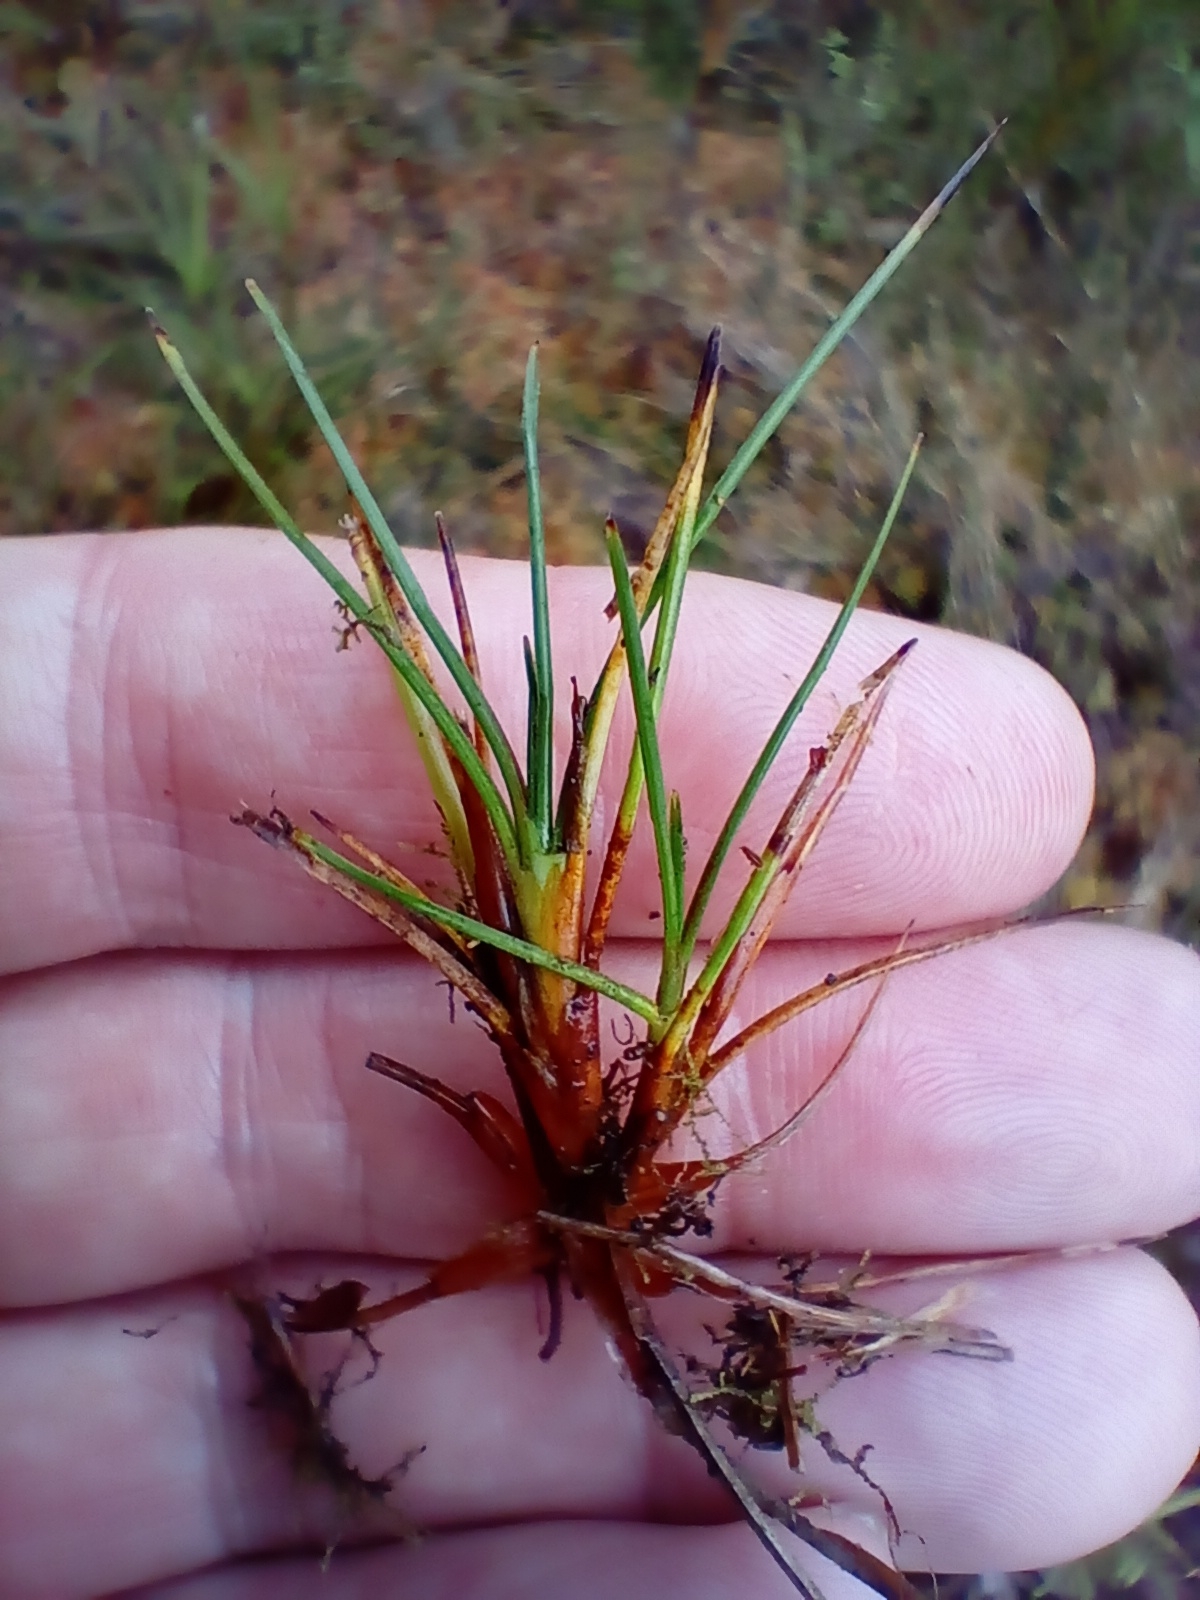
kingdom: Plantae
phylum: Tracheophyta
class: Liliopsida
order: Poales
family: Cyperaceae
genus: Oreobolus
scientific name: Oreobolus strictus
